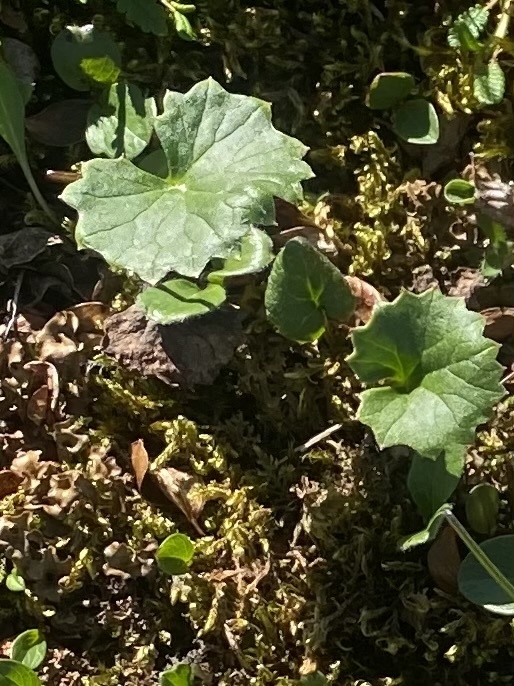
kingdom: Plantae
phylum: Tracheophyta
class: Magnoliopsida
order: Asterales
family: Asteraceae
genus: Endocellion
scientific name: Endocellion glaciale
